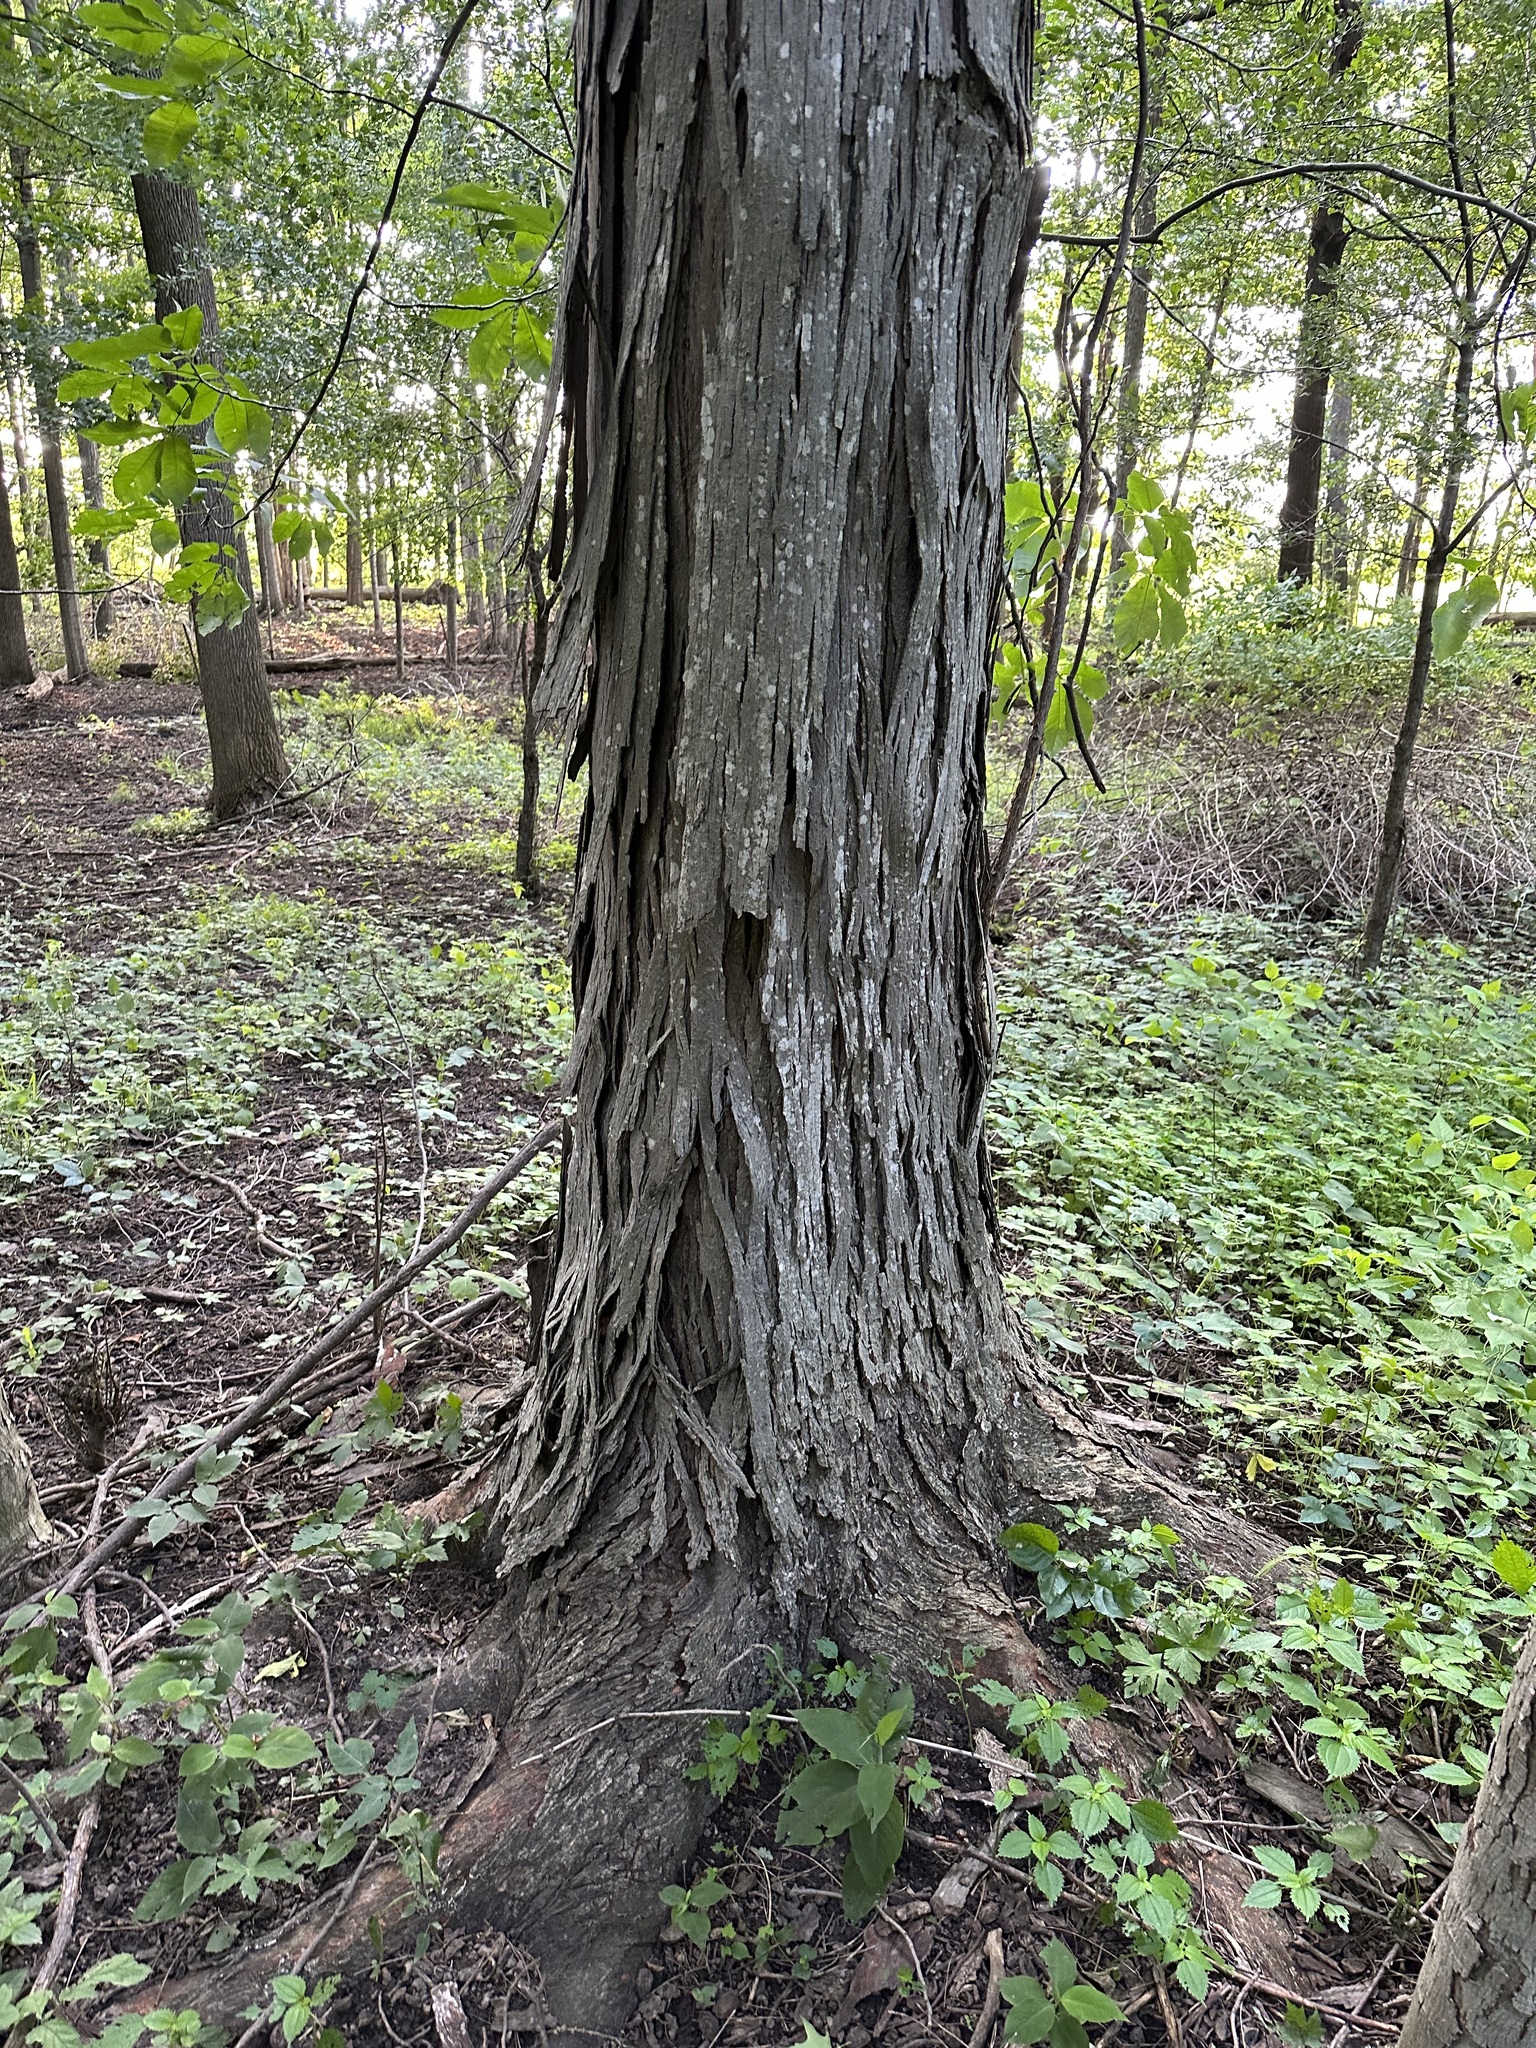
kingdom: Plantae
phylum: Tracheophyta
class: Magnoliopsida
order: Fagales
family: Juglandaceae
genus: Carya
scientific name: Carya ovata
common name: Shagbark hickory
